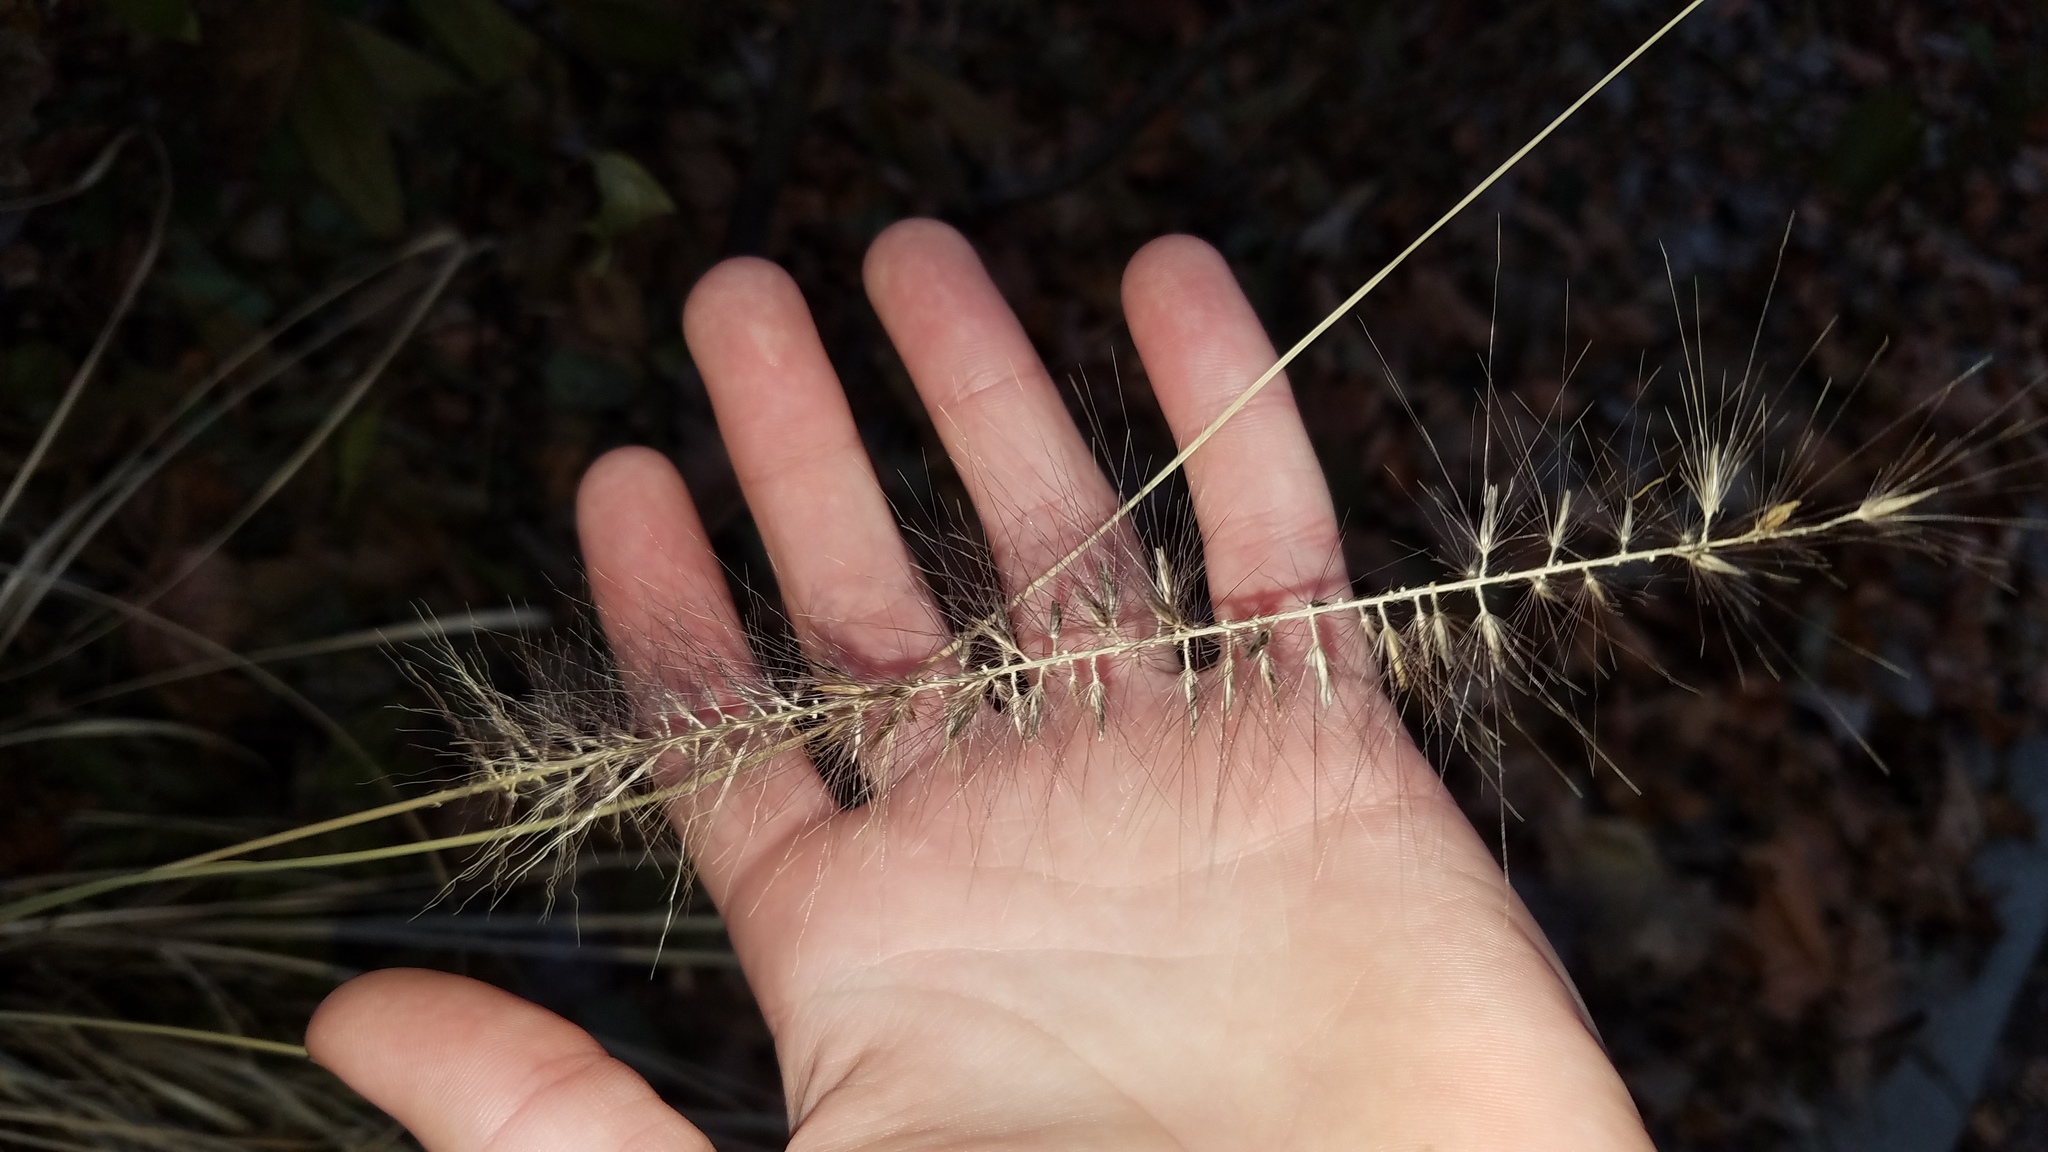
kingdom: Plantae
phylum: Tracheophyta
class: Liliopsida
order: Poales
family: Poaceae
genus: Cenchrus
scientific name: Cenchrus alopecuroides
